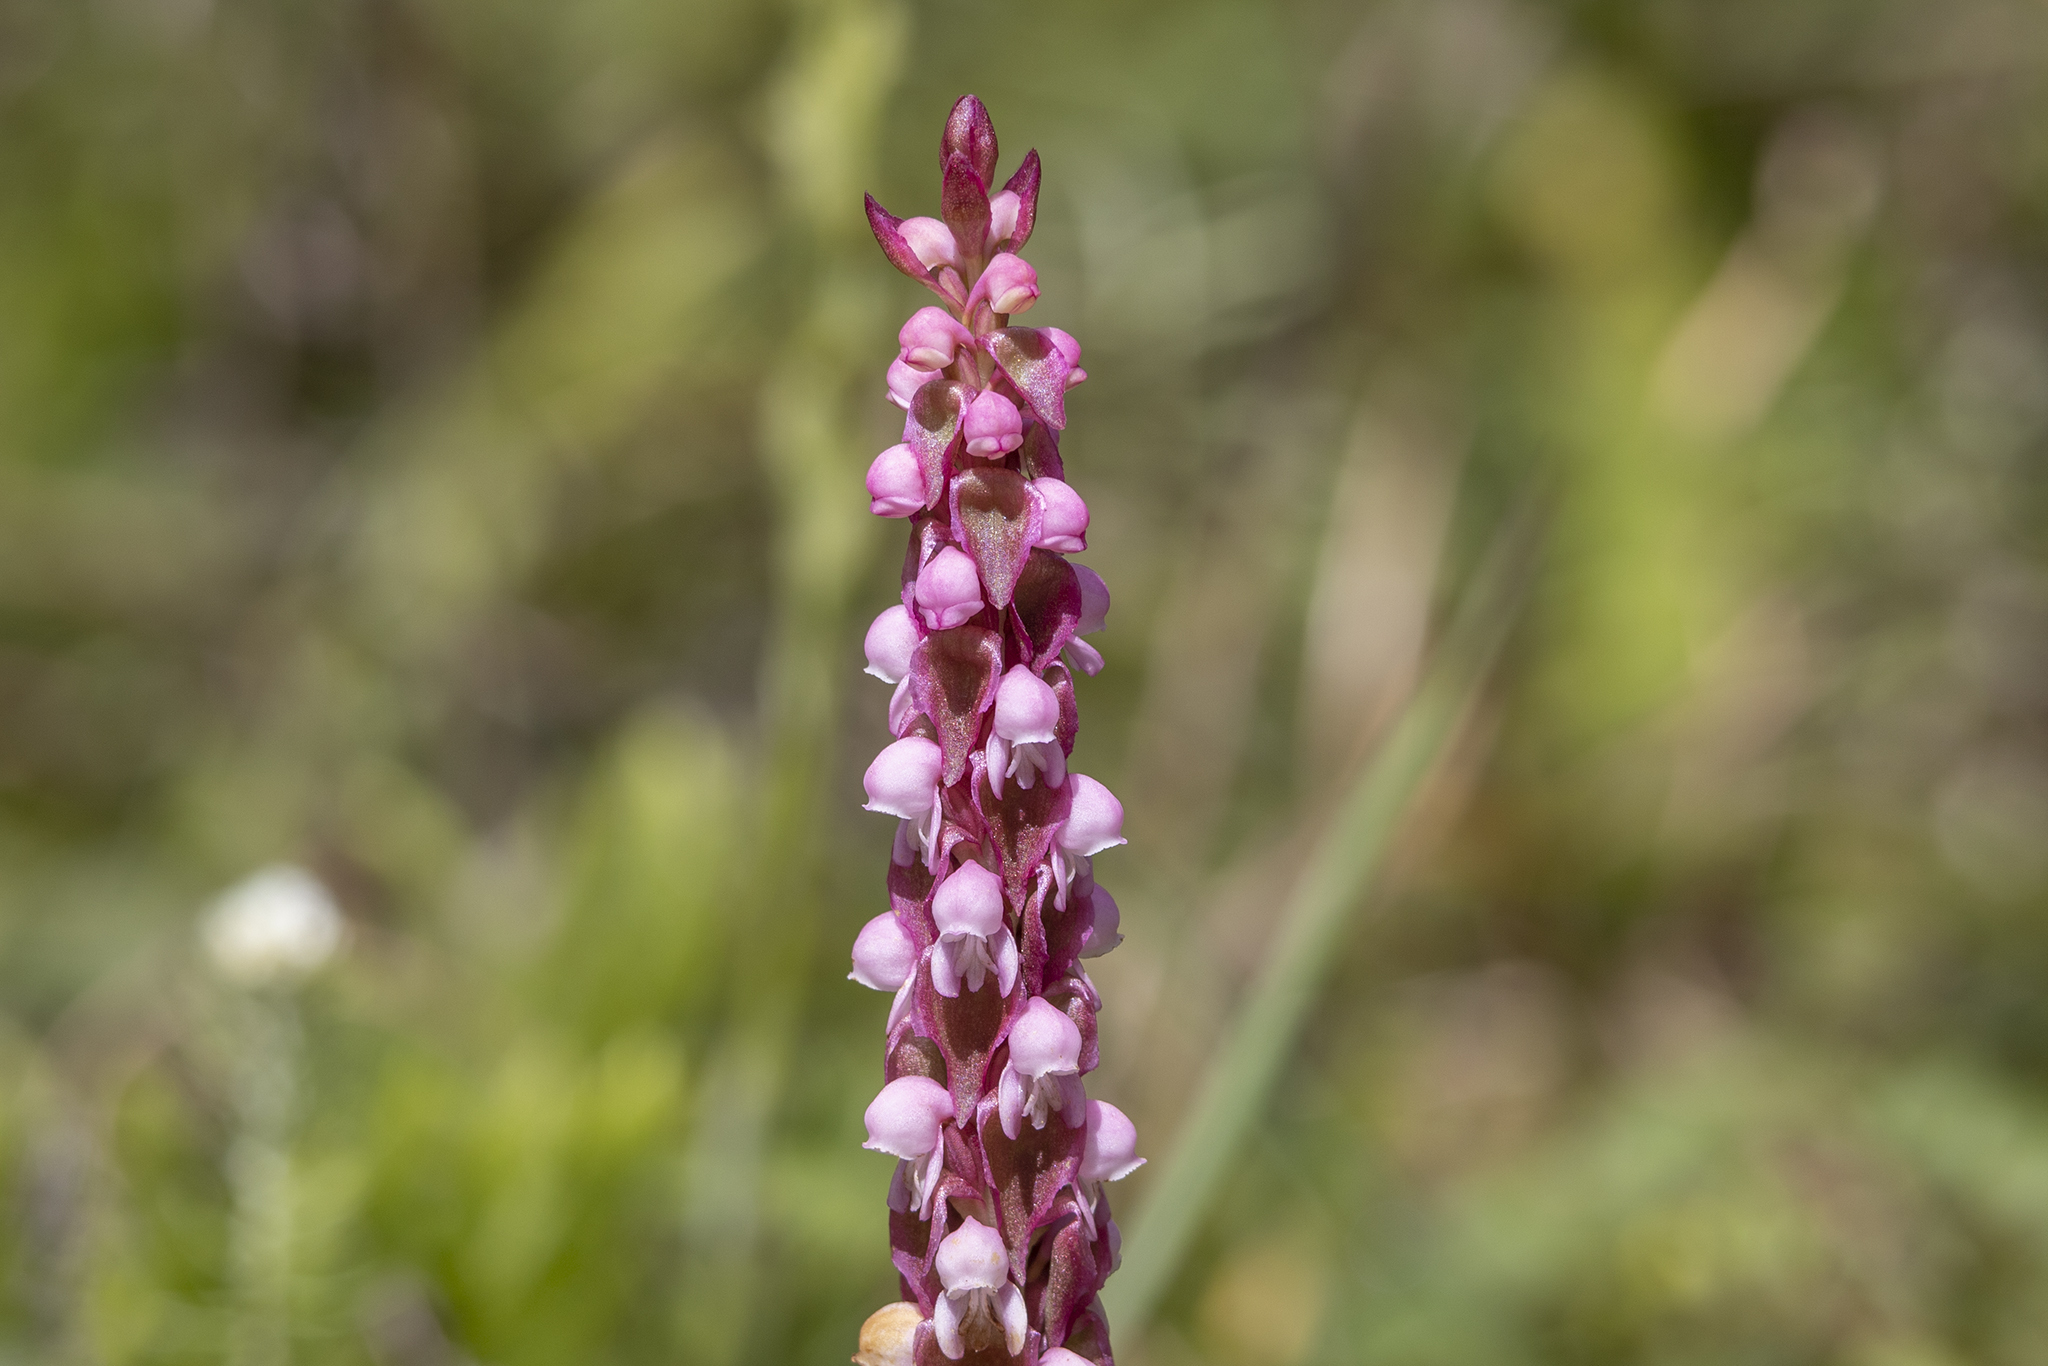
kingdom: Plantae
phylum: Tracheophyta
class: Liliopsida
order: Asparagales
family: Orchidaceae
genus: Satyrium
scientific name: Satyrium nepalense
